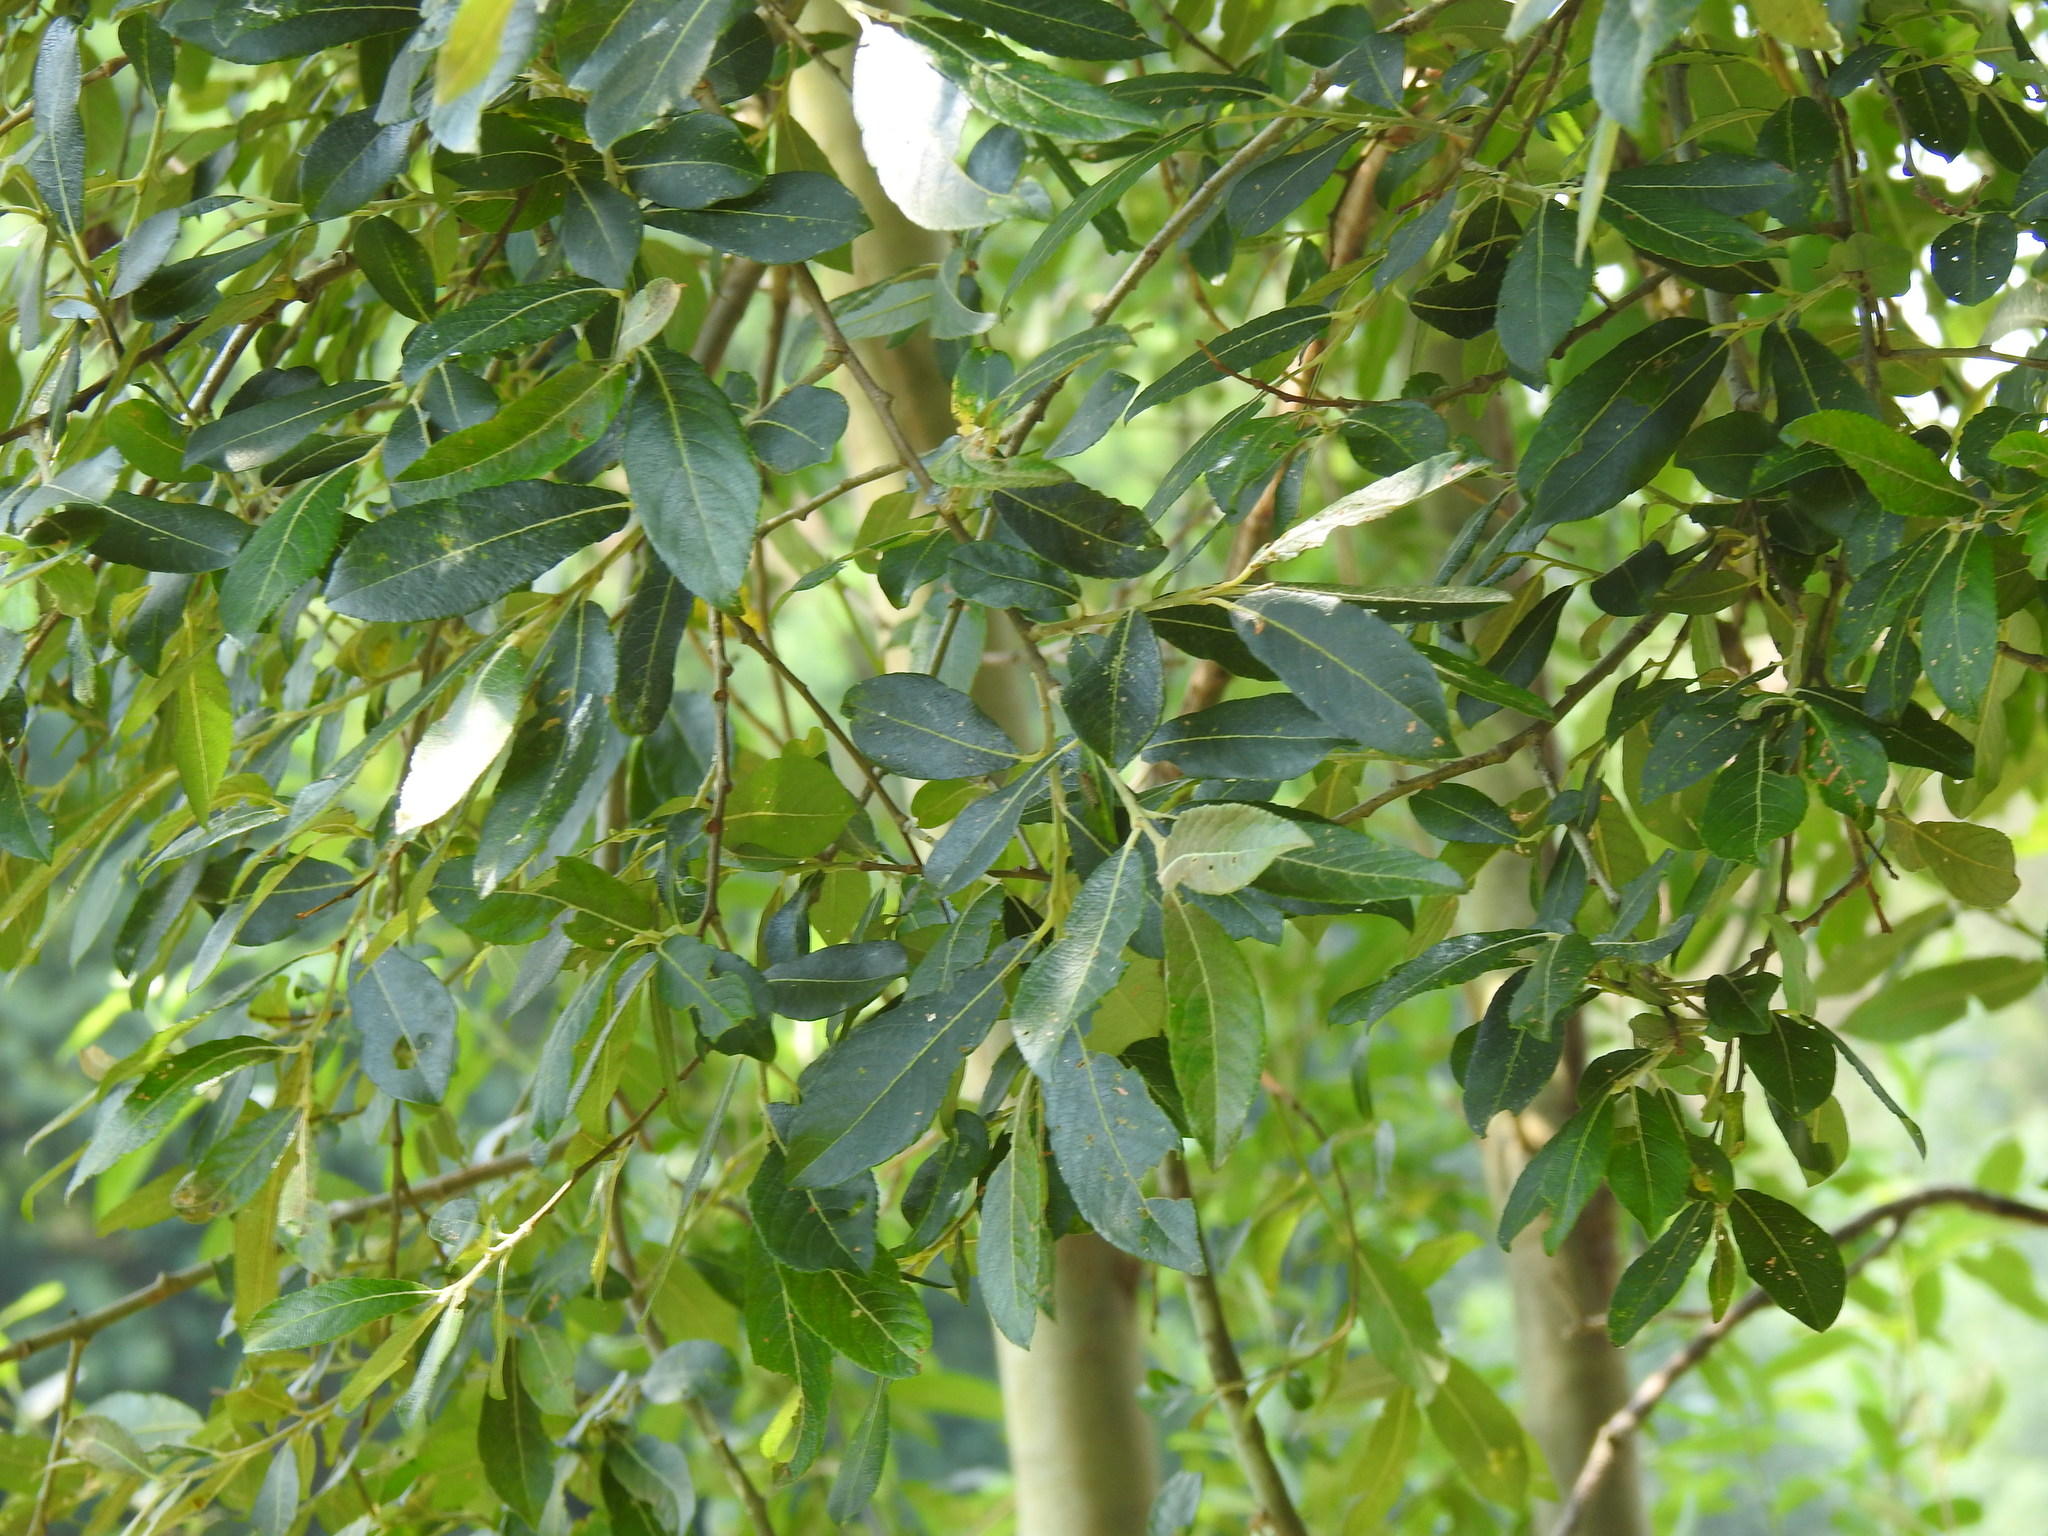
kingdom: Plantae
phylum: Tracheophyta
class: Magnoliopsida
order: Malpighiales
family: Salicaceae
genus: Salix
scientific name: Salix atrocinerea
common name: Rusty willow
